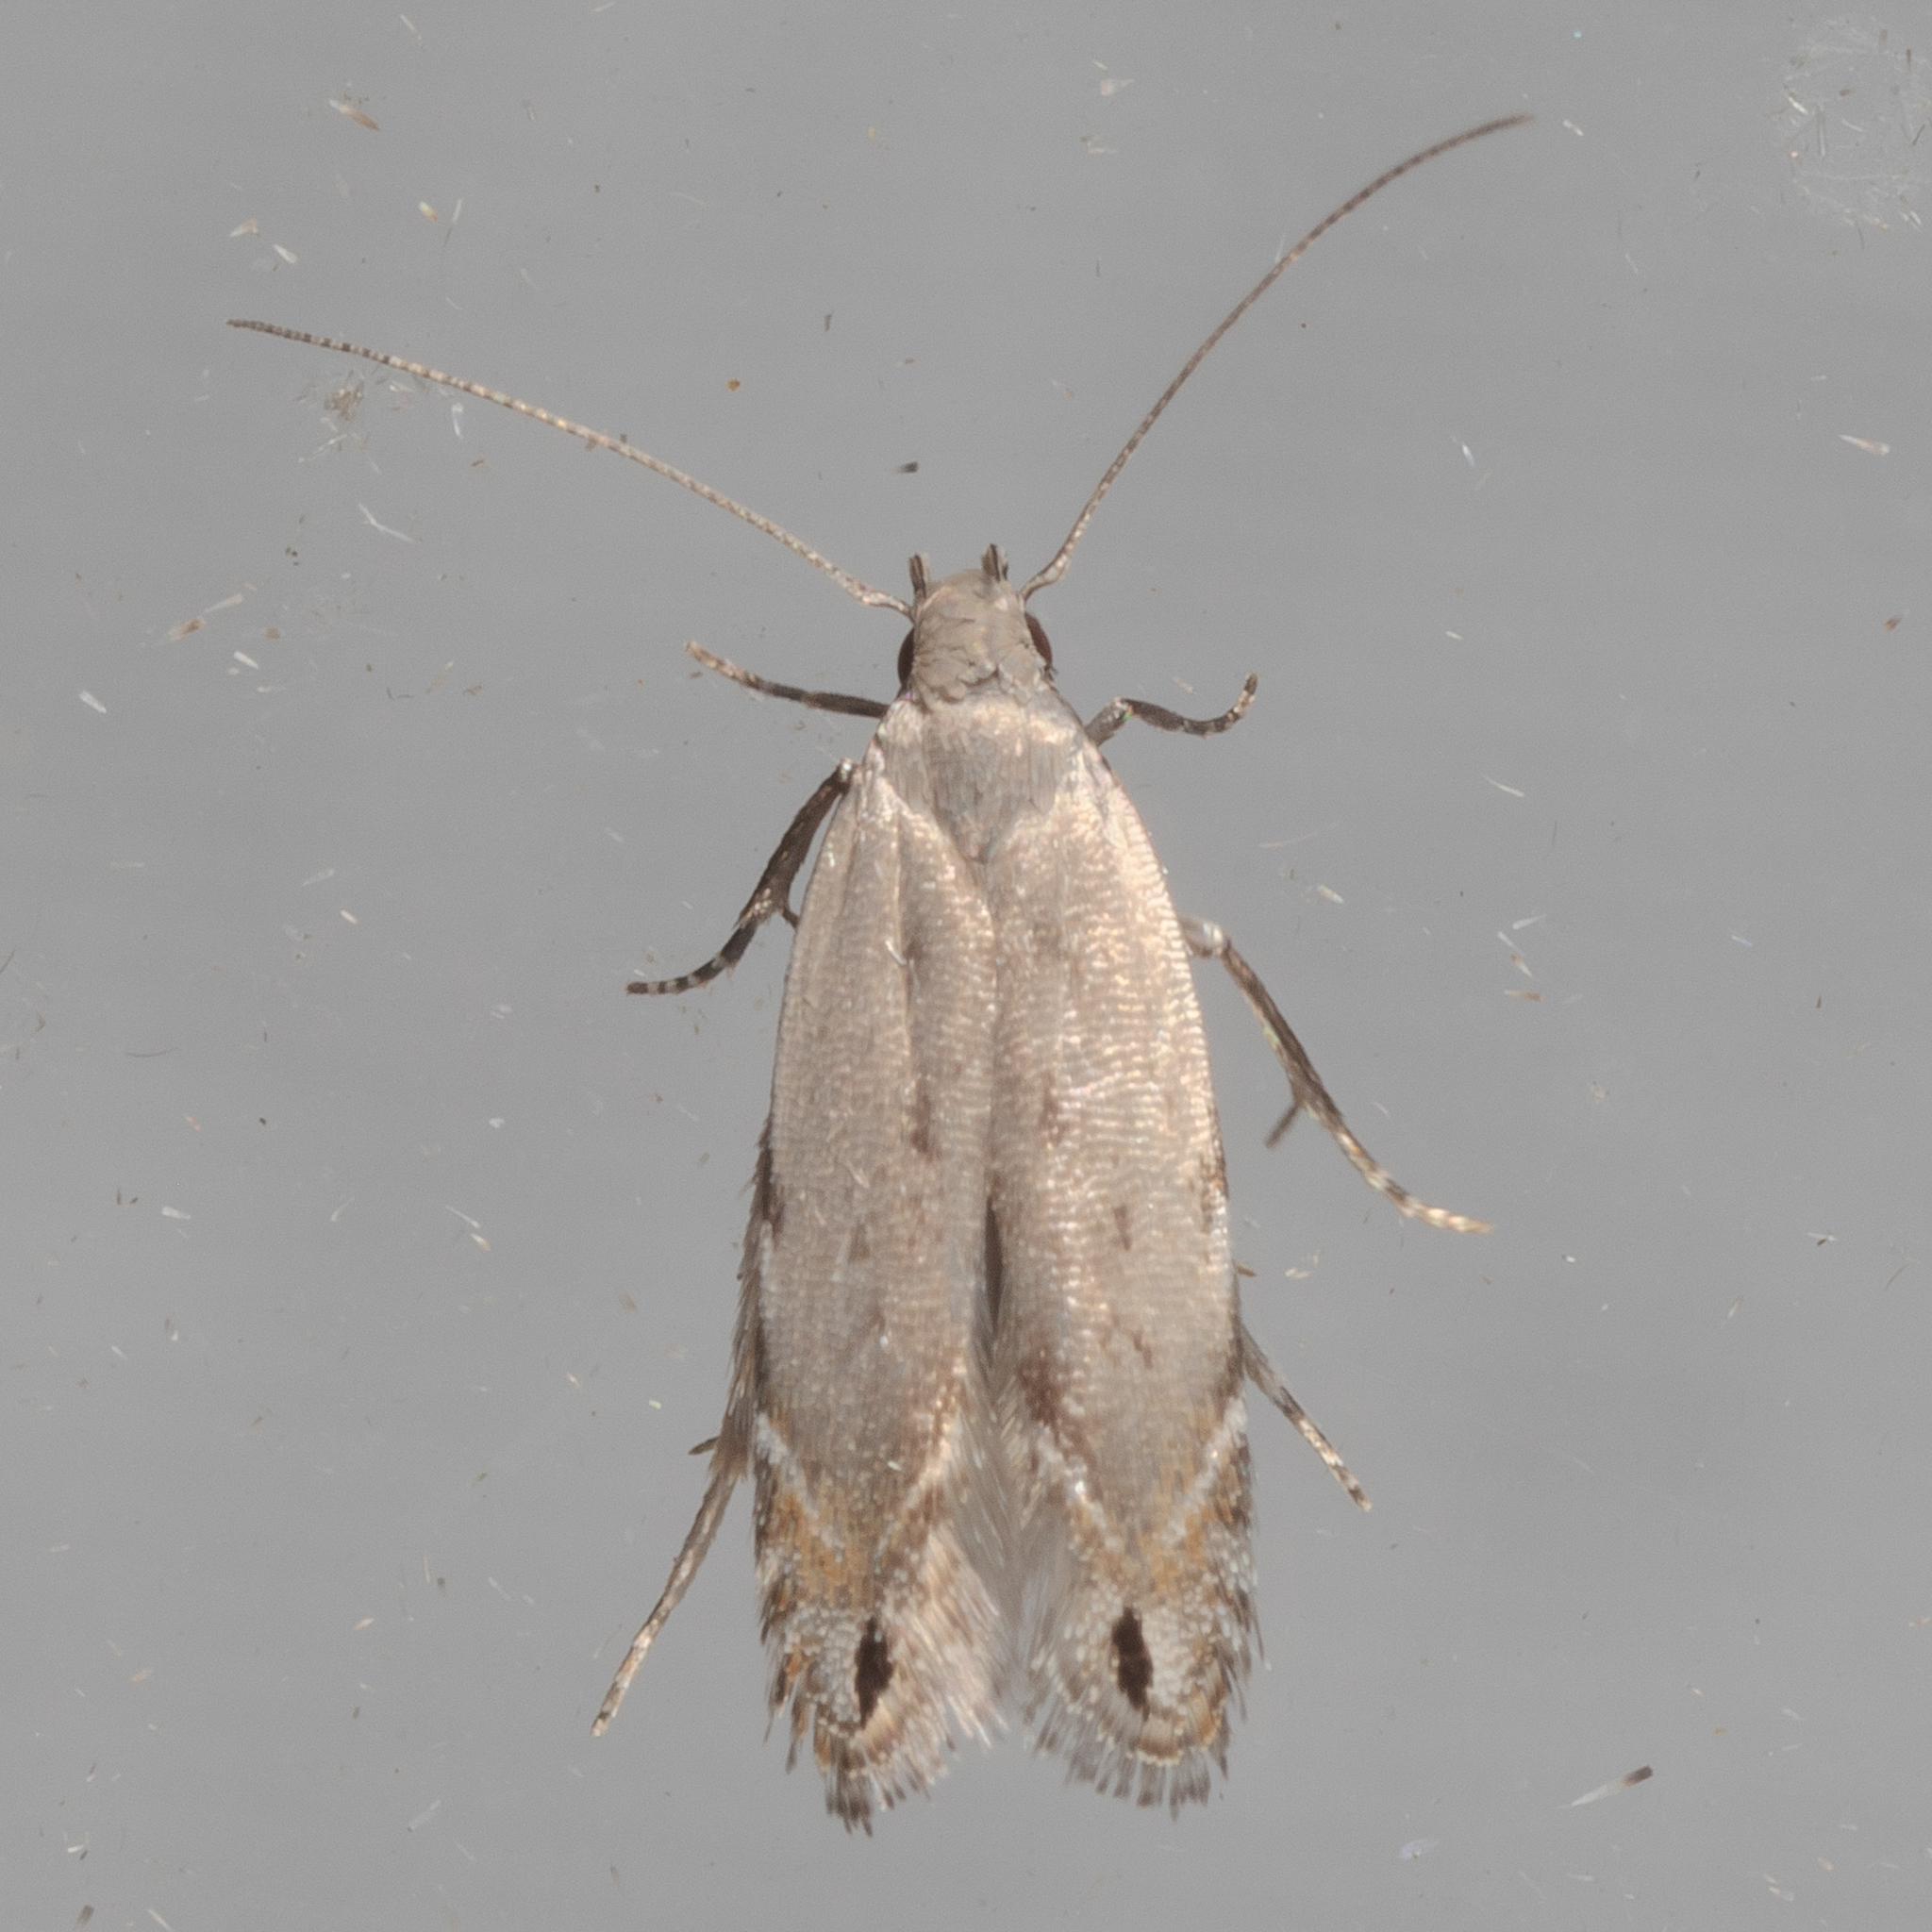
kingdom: Animalia
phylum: Arthropoda
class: Insecta
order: Lepidoptera
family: Gelechiidae
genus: Battaristis
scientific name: Battaristis concinnusella
